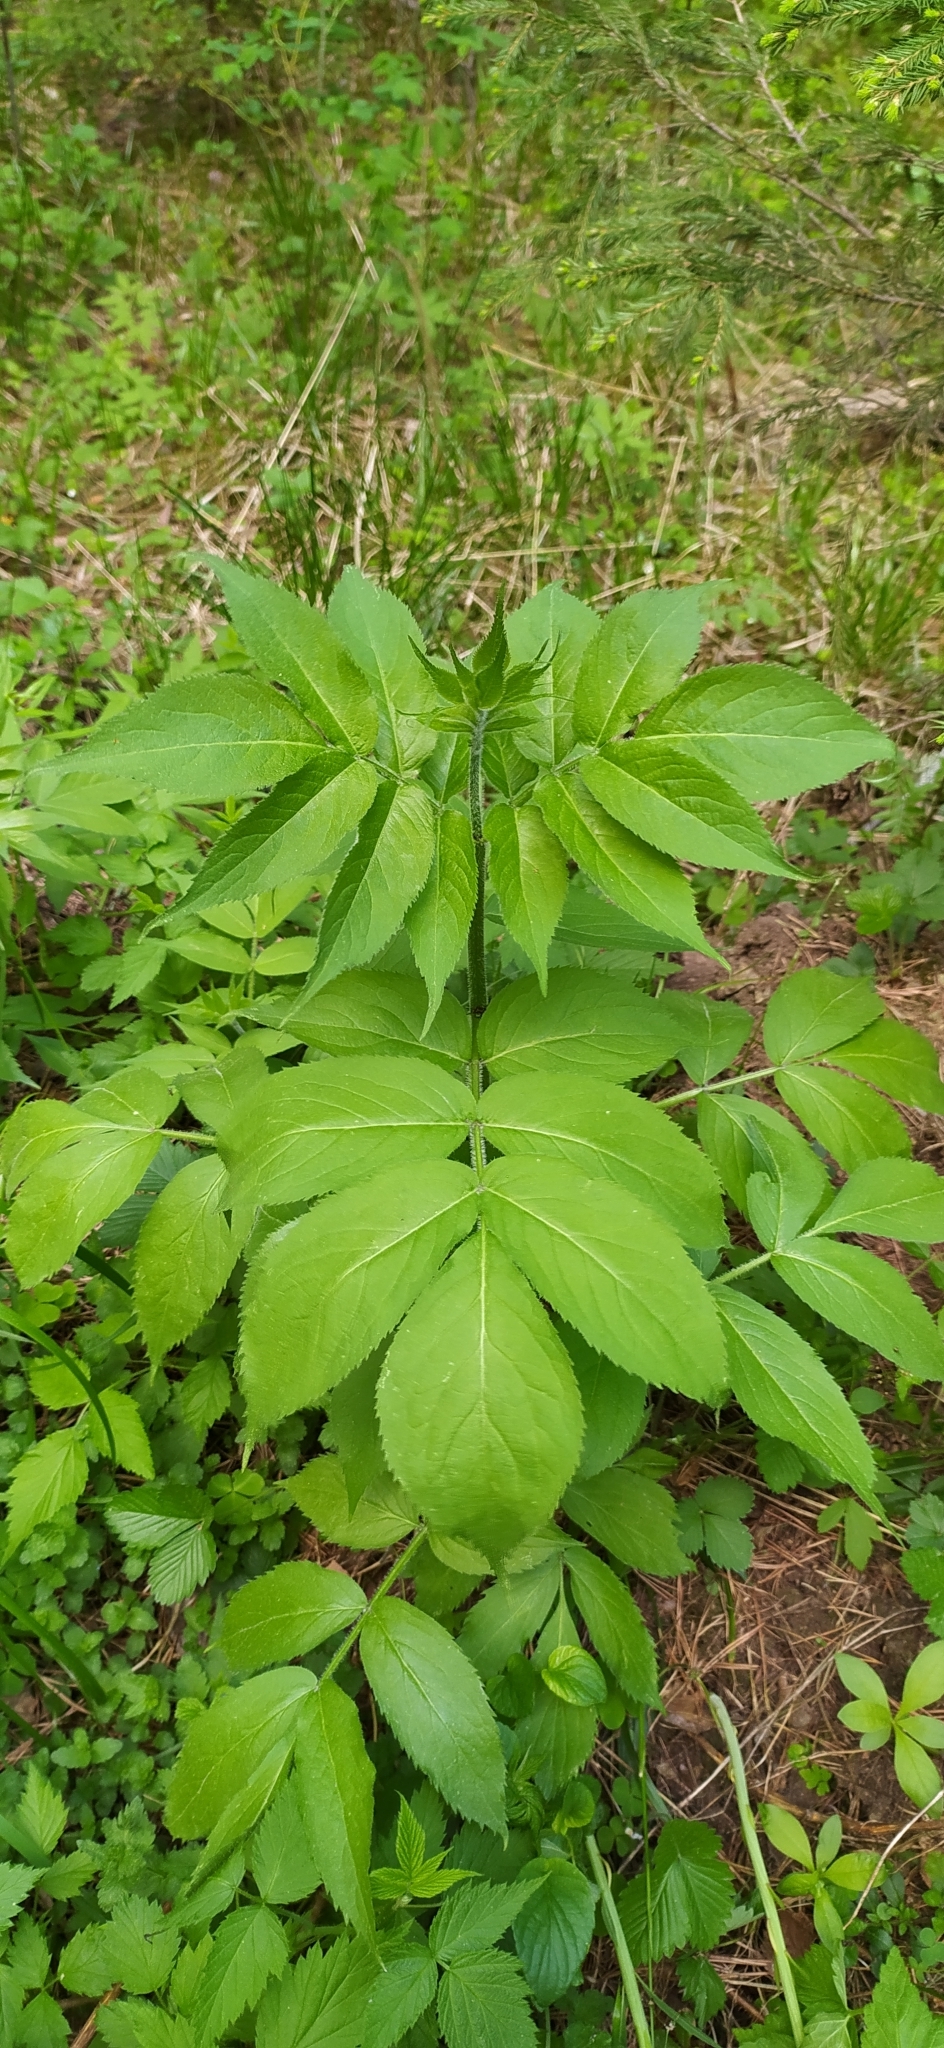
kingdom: Plantae
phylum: Tracheophyta
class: Magnoliopsida
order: Dipsacales
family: Viburnaceae
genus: Sambucus
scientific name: Sambucus sibirica
